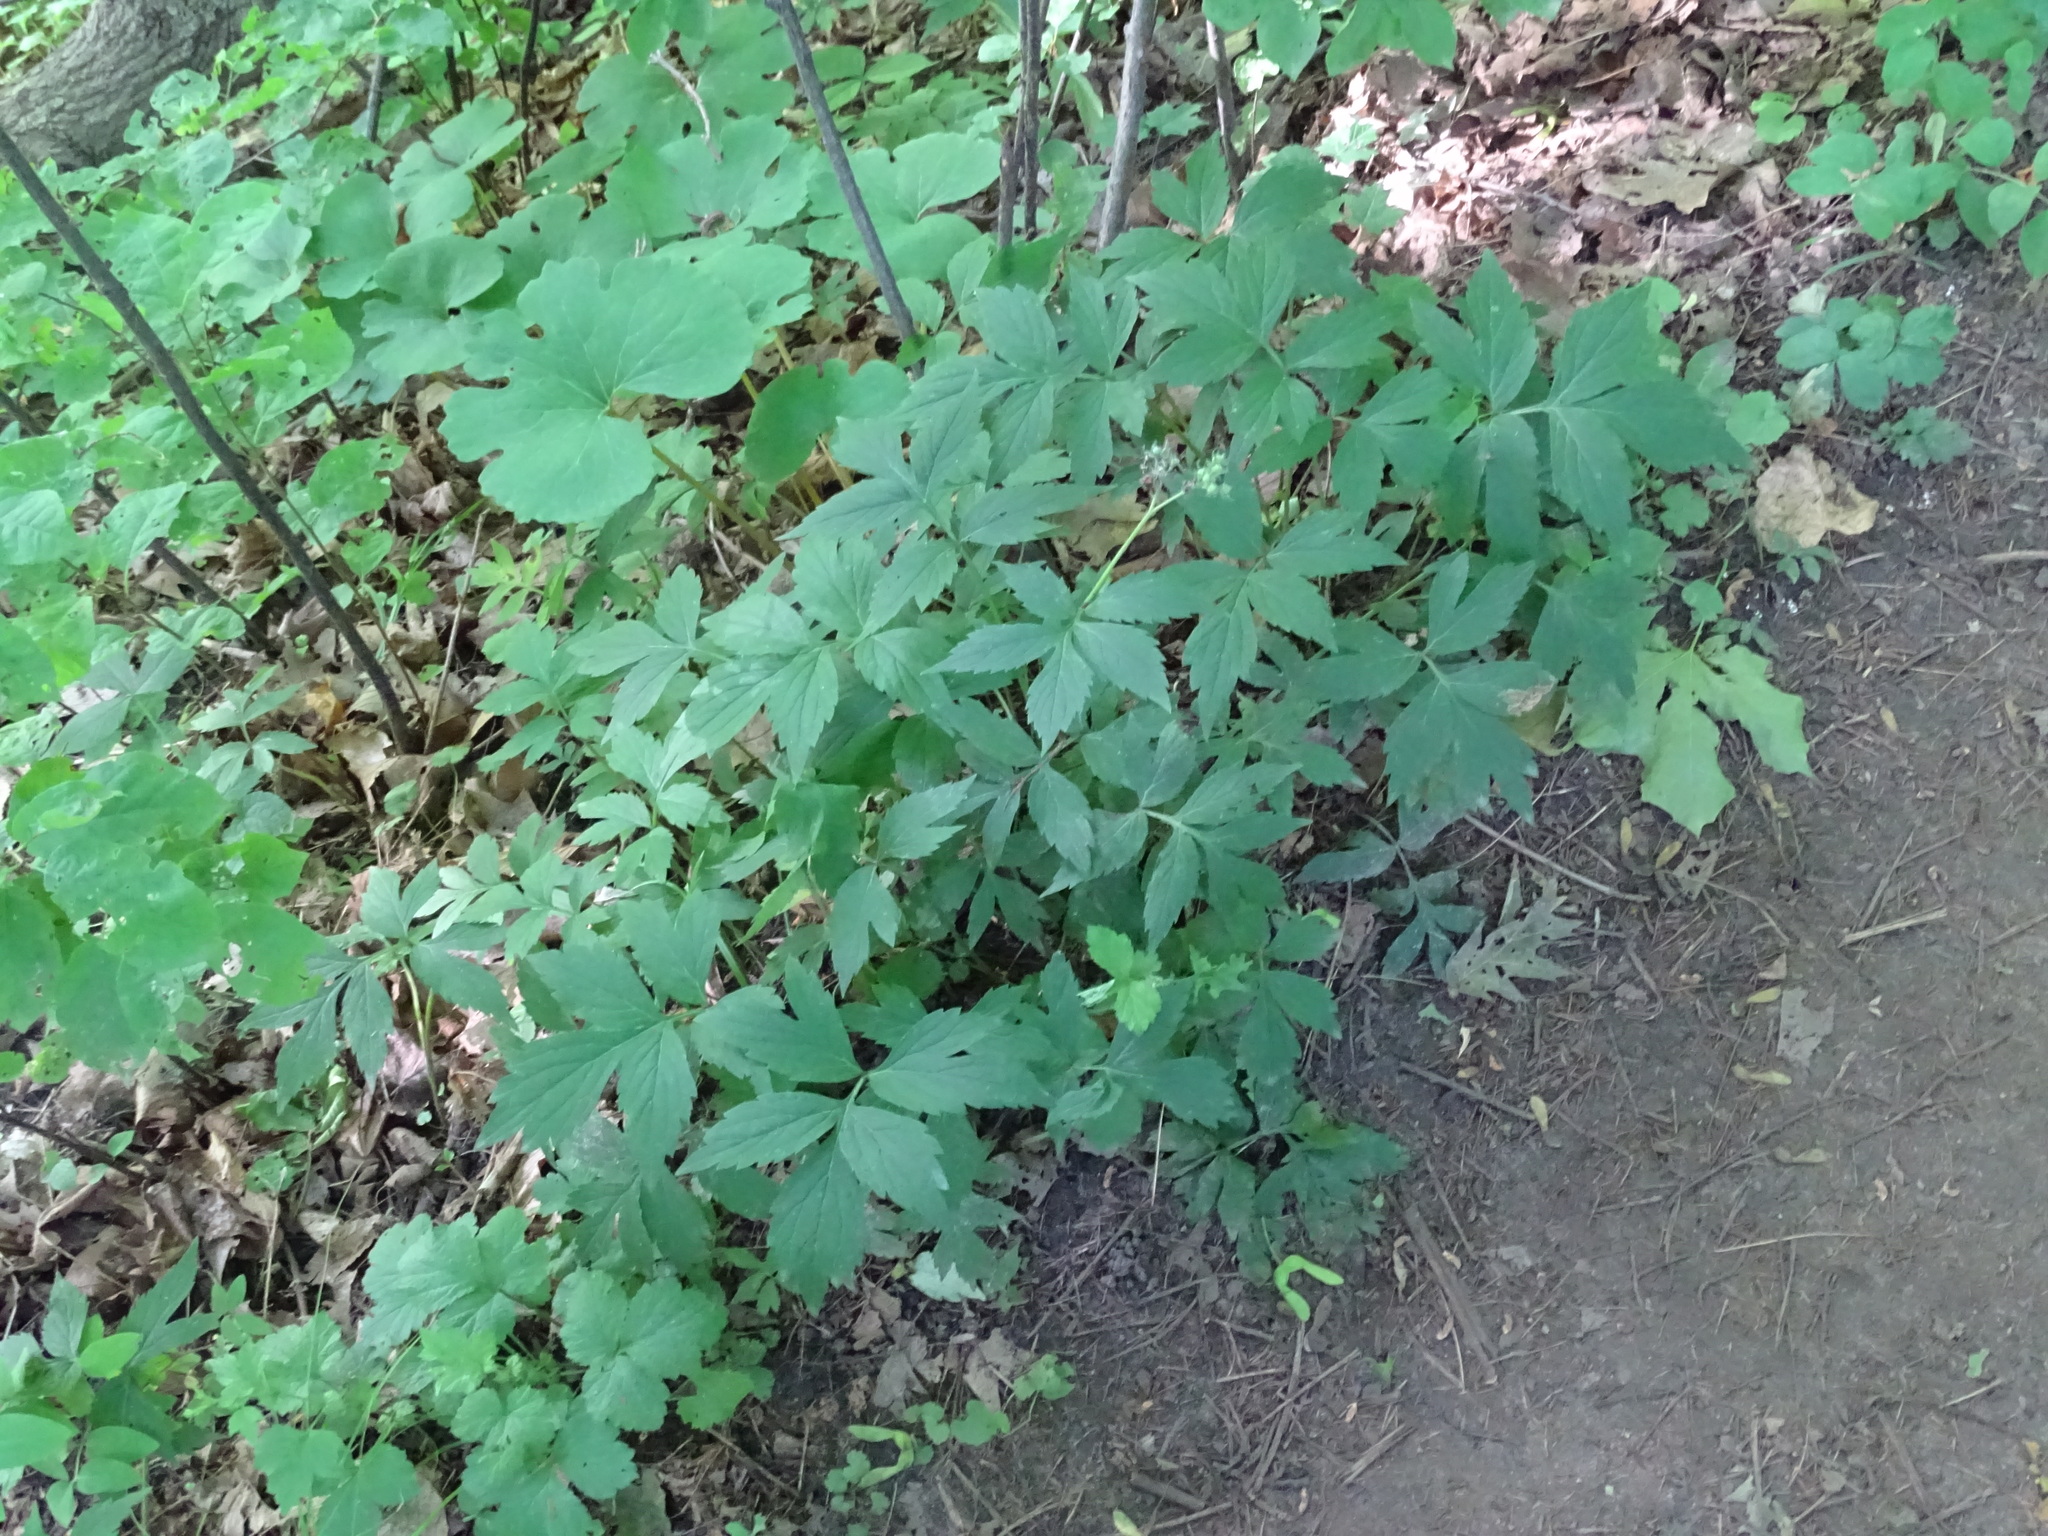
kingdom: Plantae
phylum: Tracheophyta
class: Magnoliopsida
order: Boraginales
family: Hydrophyllaceae
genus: Hydrophyllum
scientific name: Hydrophyllum virginianum
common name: Virginia waterleaf
